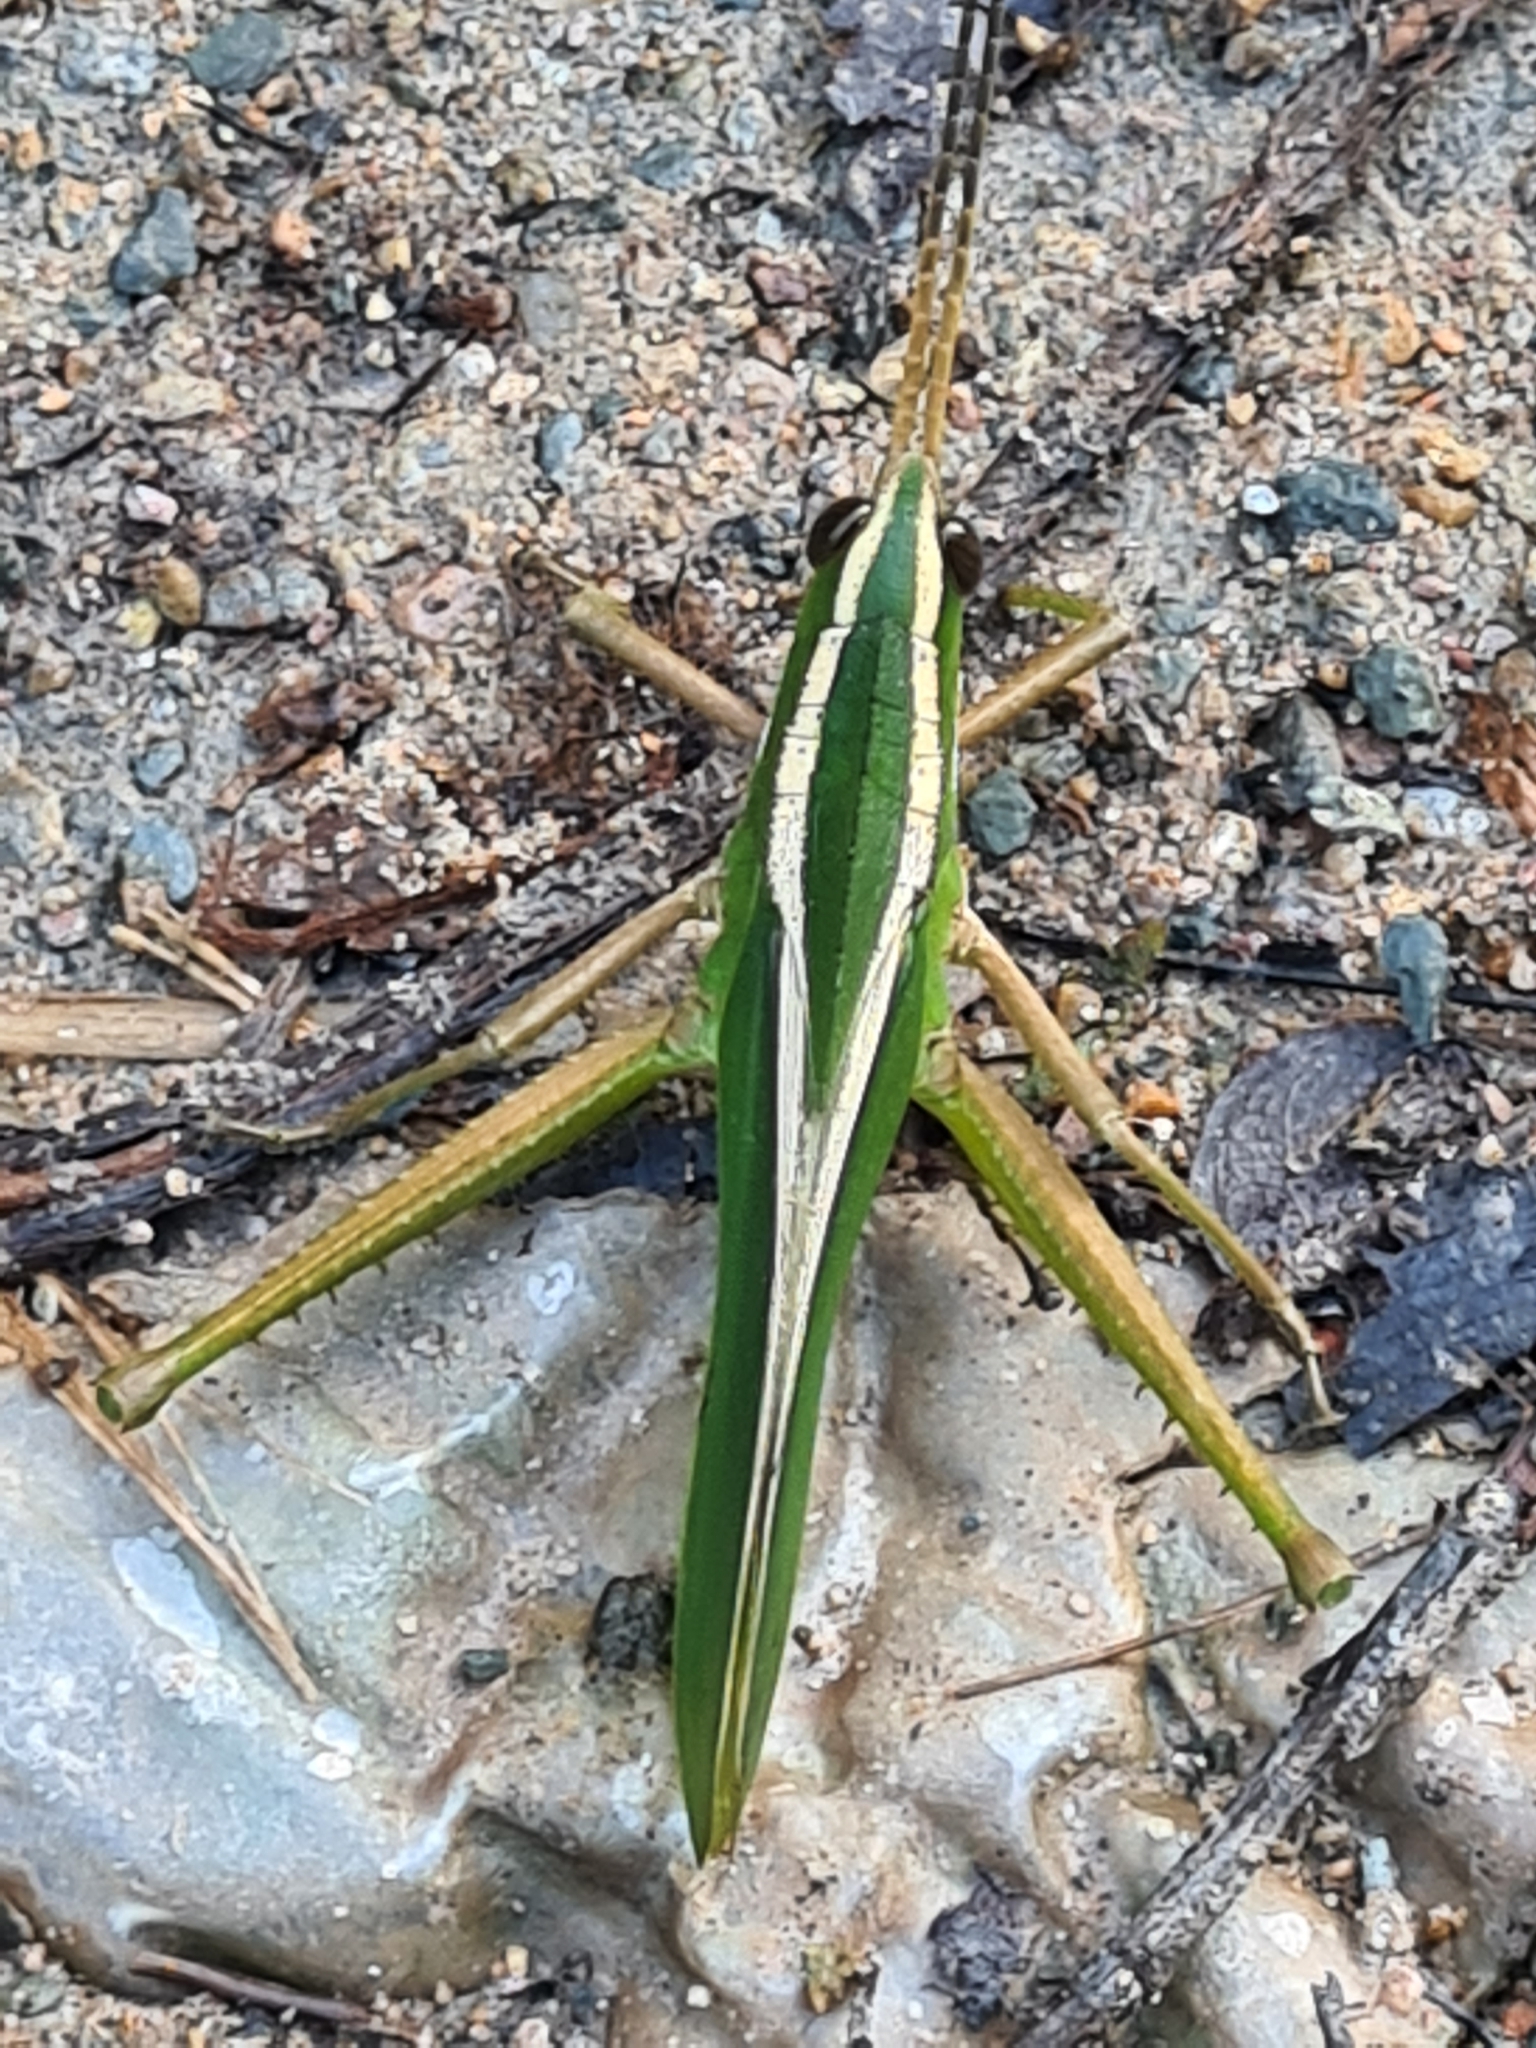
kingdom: Animalia
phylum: Arthropoda
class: Insecta
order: Orthoptera
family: Romaleidae
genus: Prionolopha
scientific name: Prionolopha serrata
